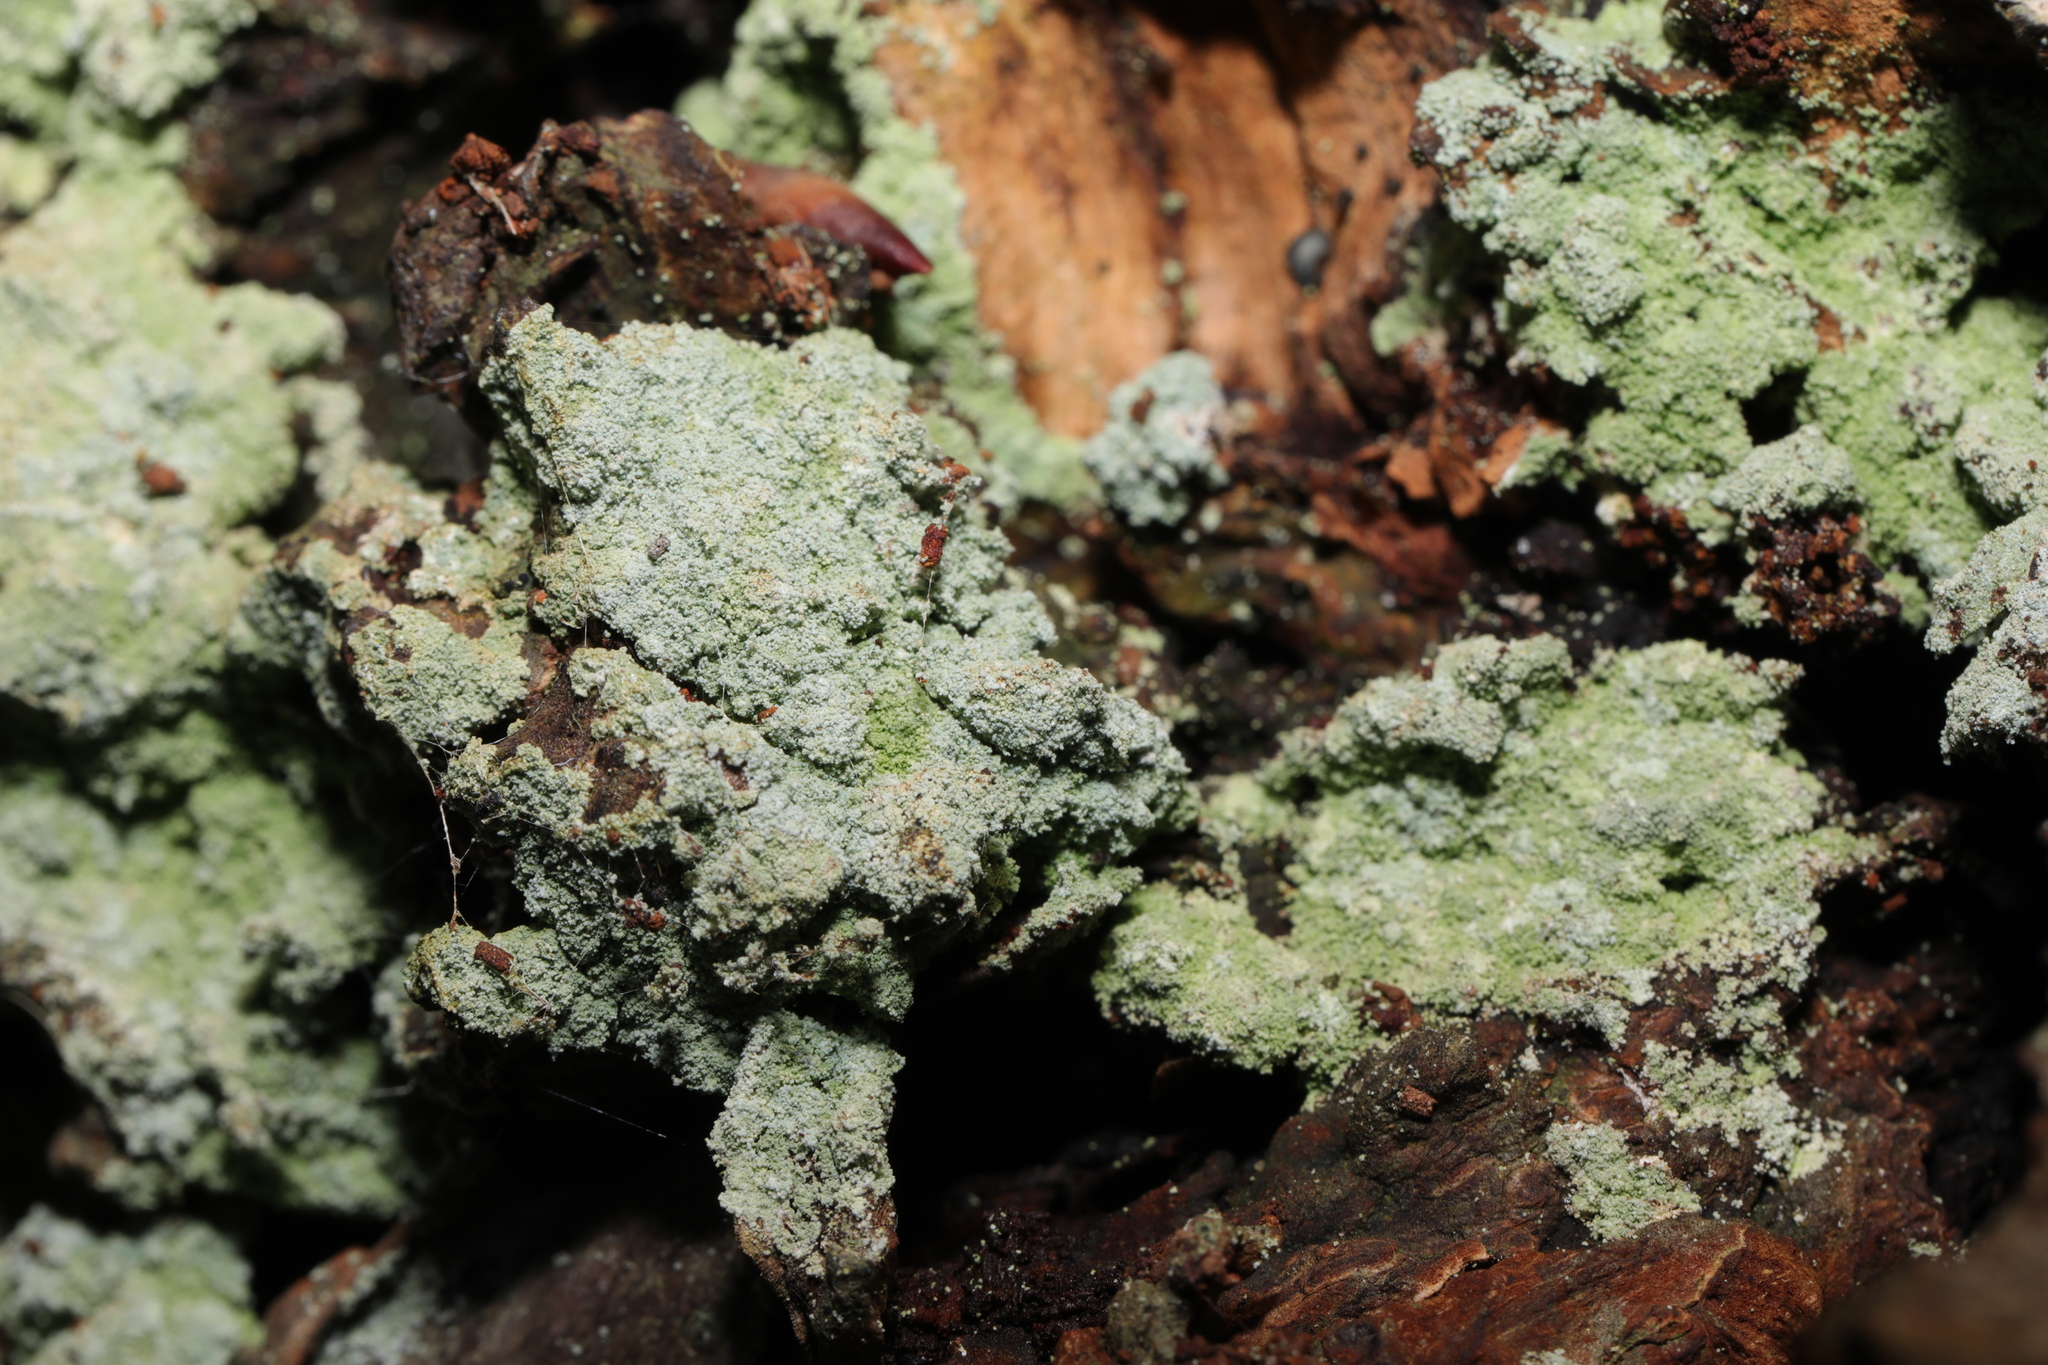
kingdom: Fungi
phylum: Ascomycota
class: Lecanoromycetes
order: Lecanorales
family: Stereocaulaceae
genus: Lepraria
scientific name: Lepraria
